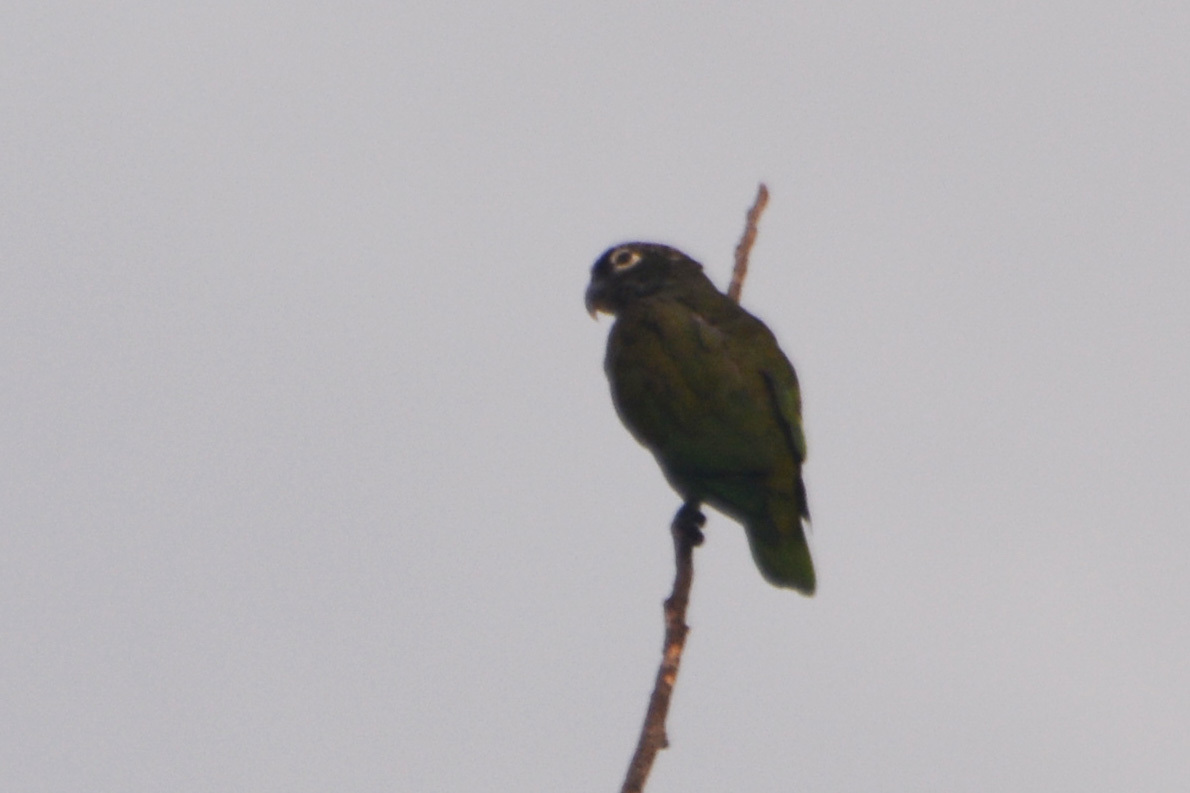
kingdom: Animalia
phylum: Chordata
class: Aves
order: Psittaciformes
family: Psittacidae
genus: Pionus
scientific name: Pionus maximiliani
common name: Scaly-headed parrot
